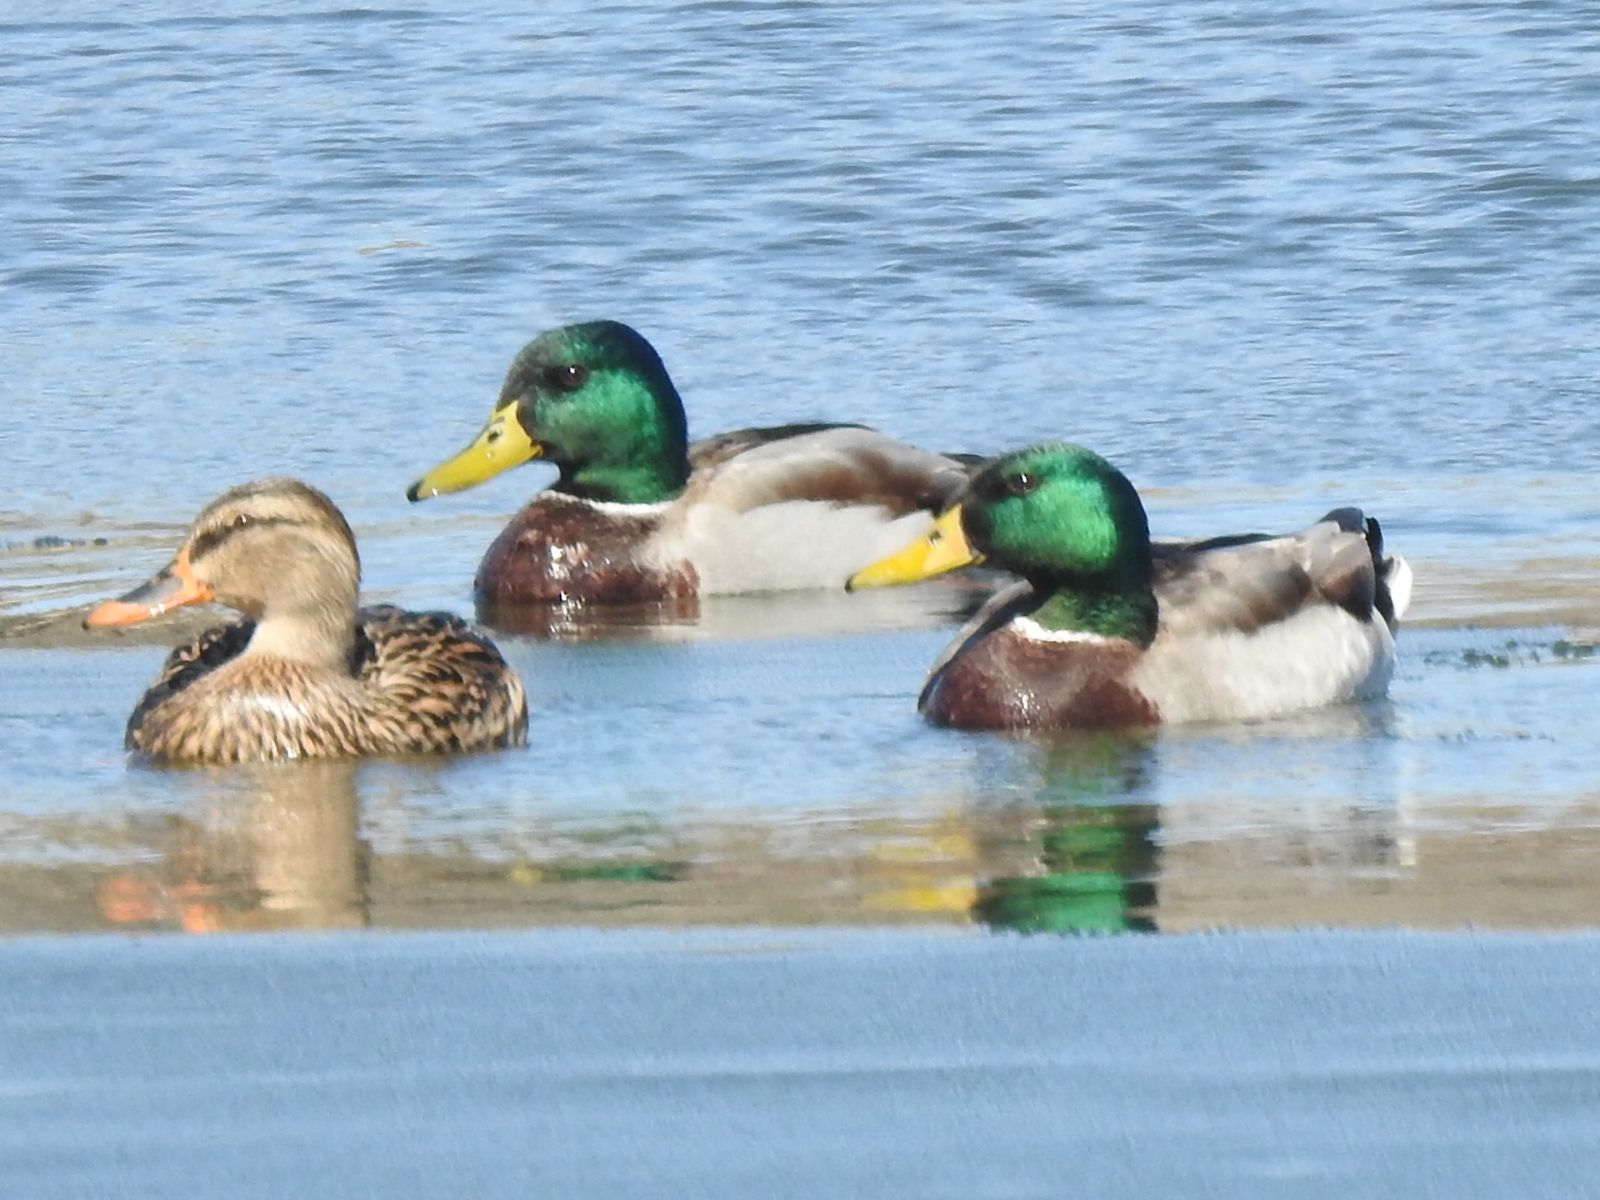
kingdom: Animalia
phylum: Chordata
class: Aves
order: Anseriformes
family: Anatidae
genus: Anas
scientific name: Anas platyrhynchos
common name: Mallard
